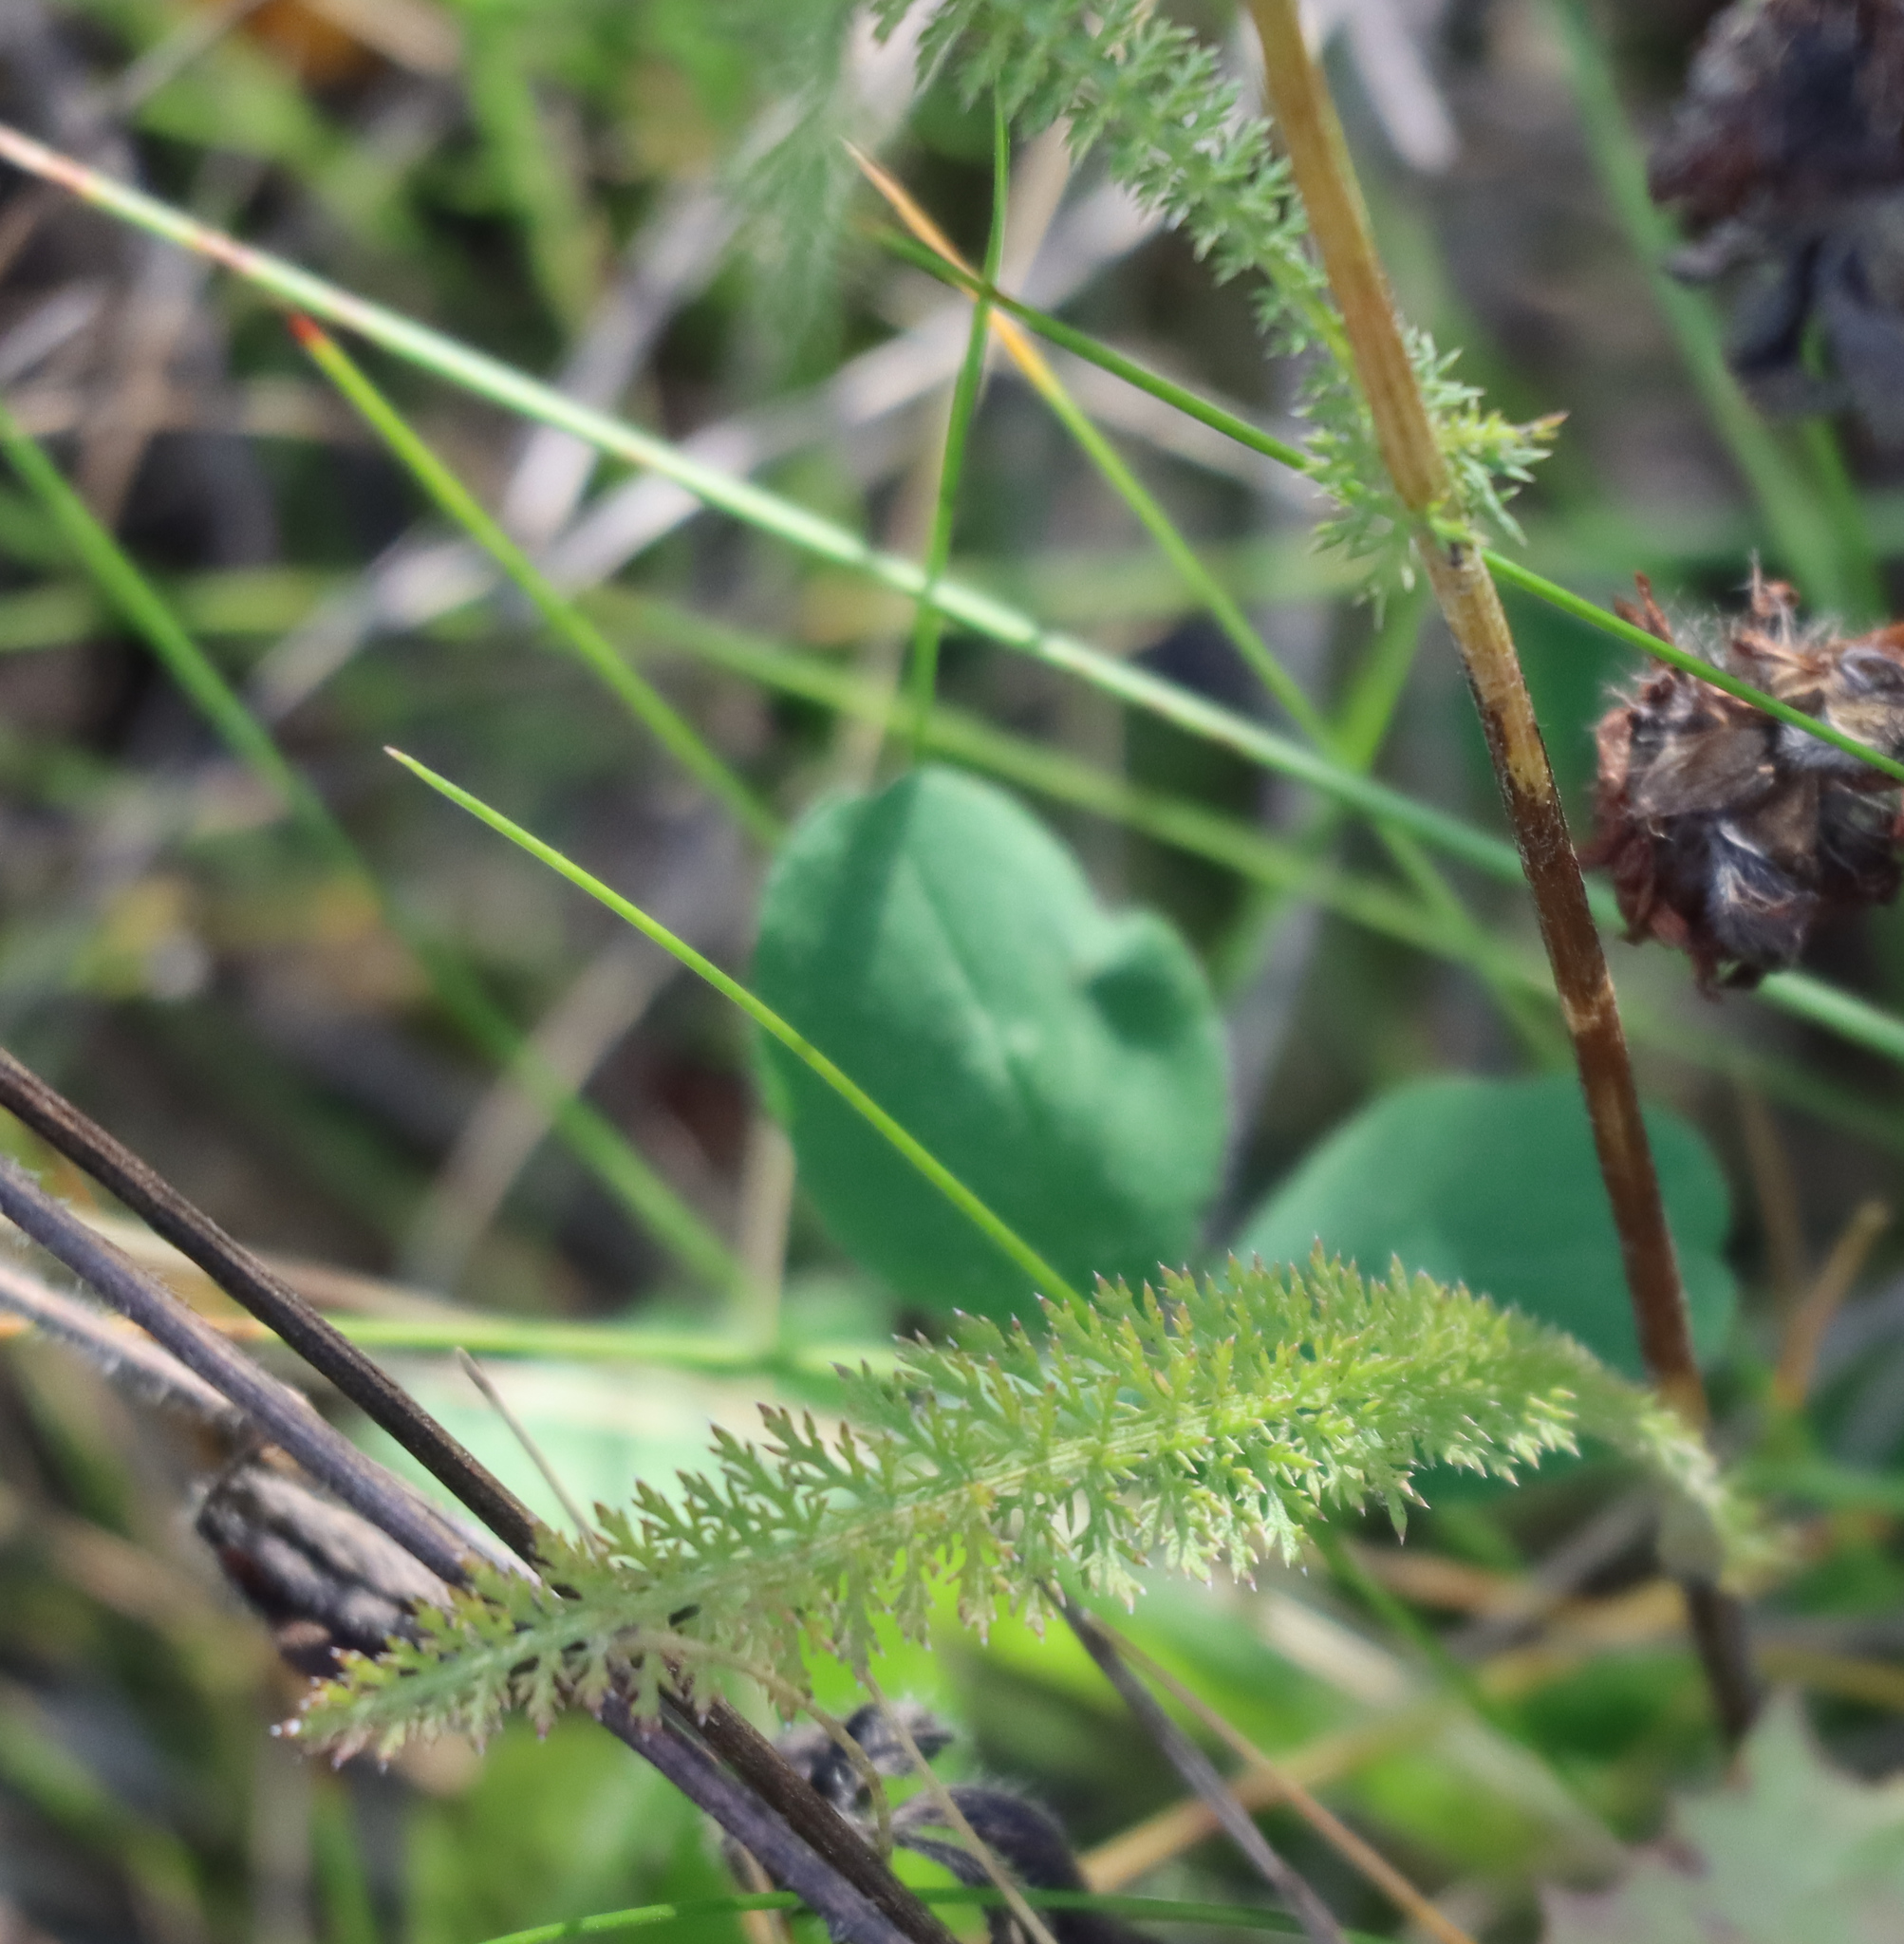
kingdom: Plantae
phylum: Tracheophyta
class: Magnoliopsida
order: Asterales
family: Asteraceae
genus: Achillea
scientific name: Achillea millefolium
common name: Yarrow
